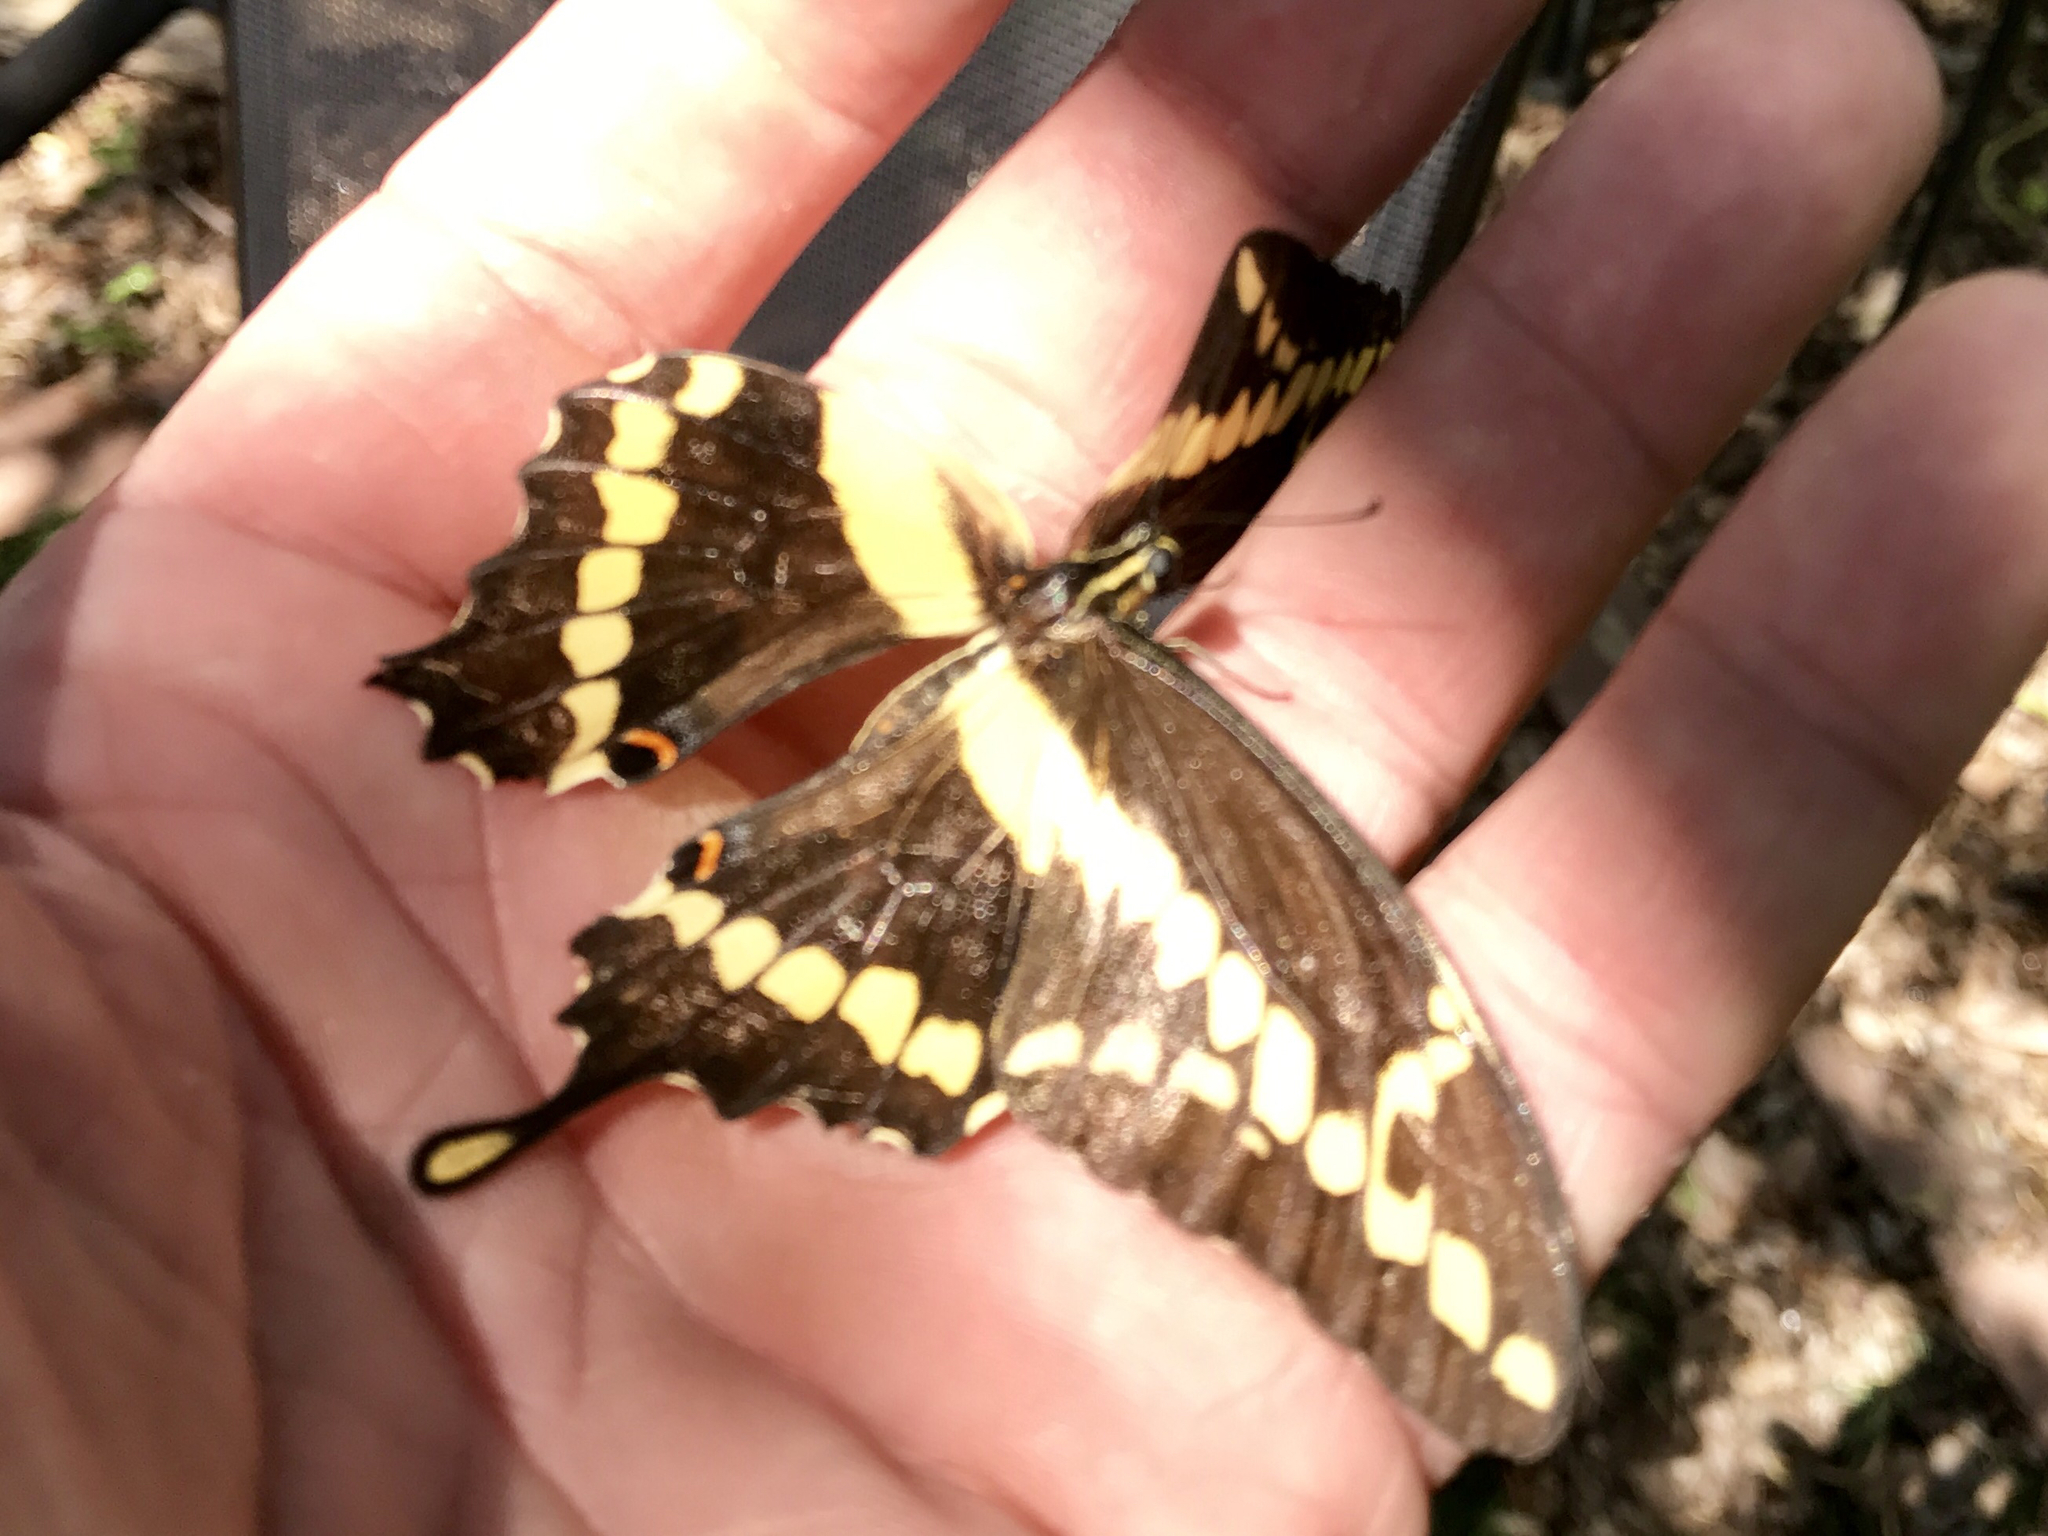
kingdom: Animalia
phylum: Arthropoda
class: Insecta
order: Lepidoptera
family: Papilionidae
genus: Papilio
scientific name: Papilio rumiko
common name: Western giant swallowtail
